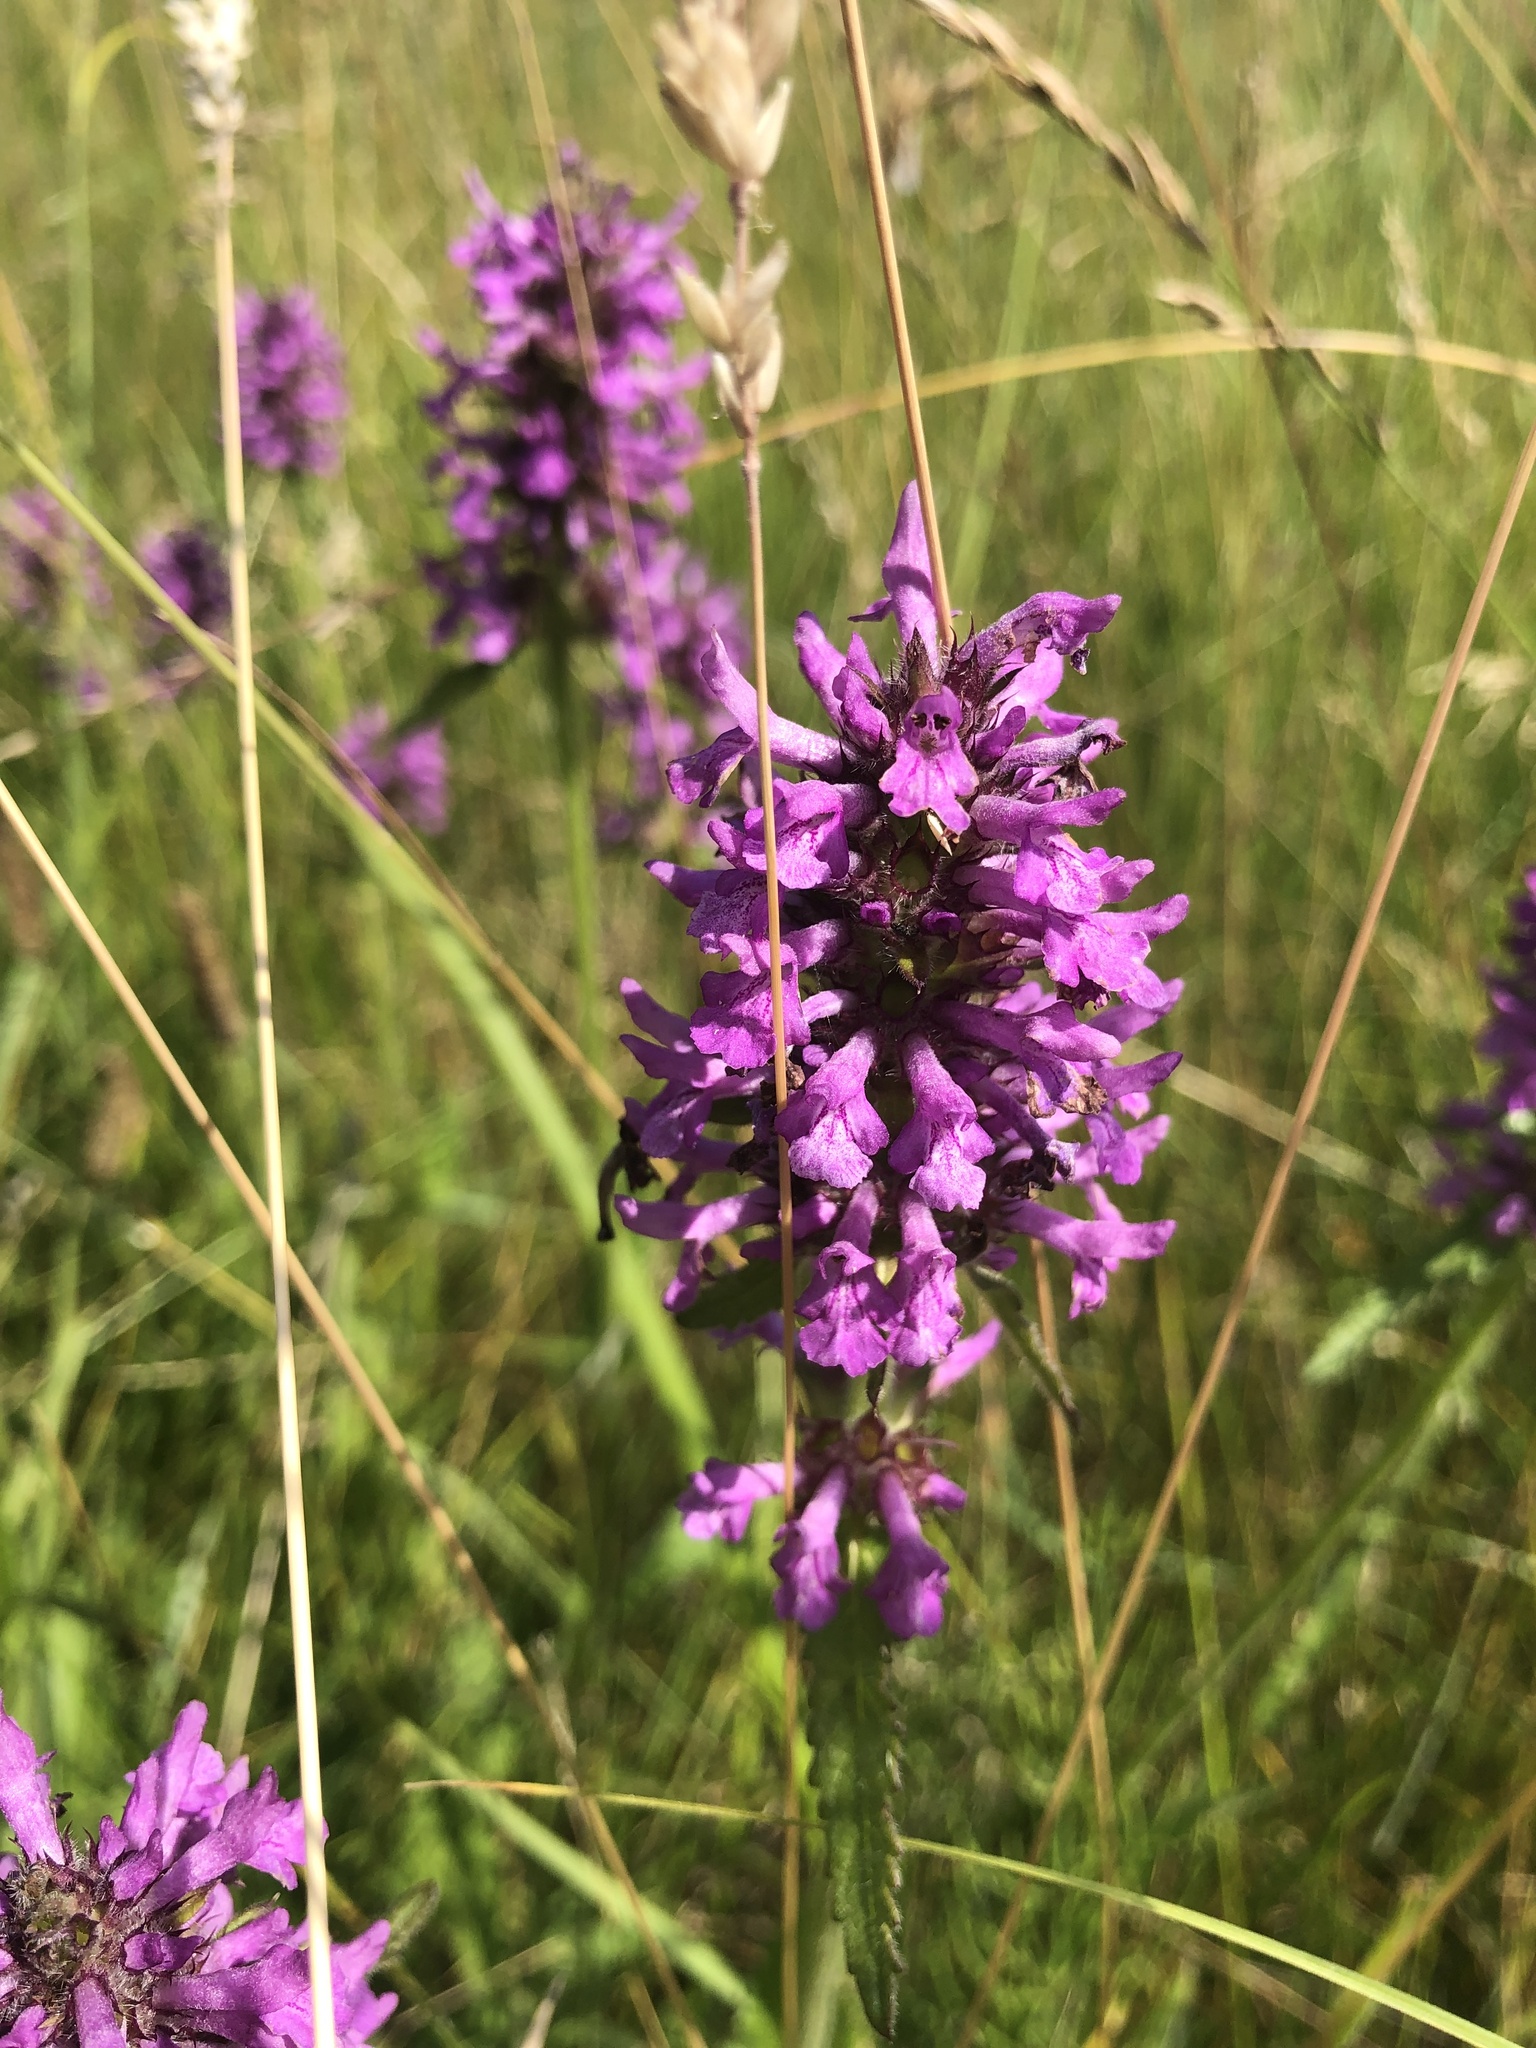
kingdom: Plantae
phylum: Tracheophyta
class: Magnoliopsida
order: Lamiales
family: Lamiaceae
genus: Betonica
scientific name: Betonica officinalis
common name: Bishop's-wort
